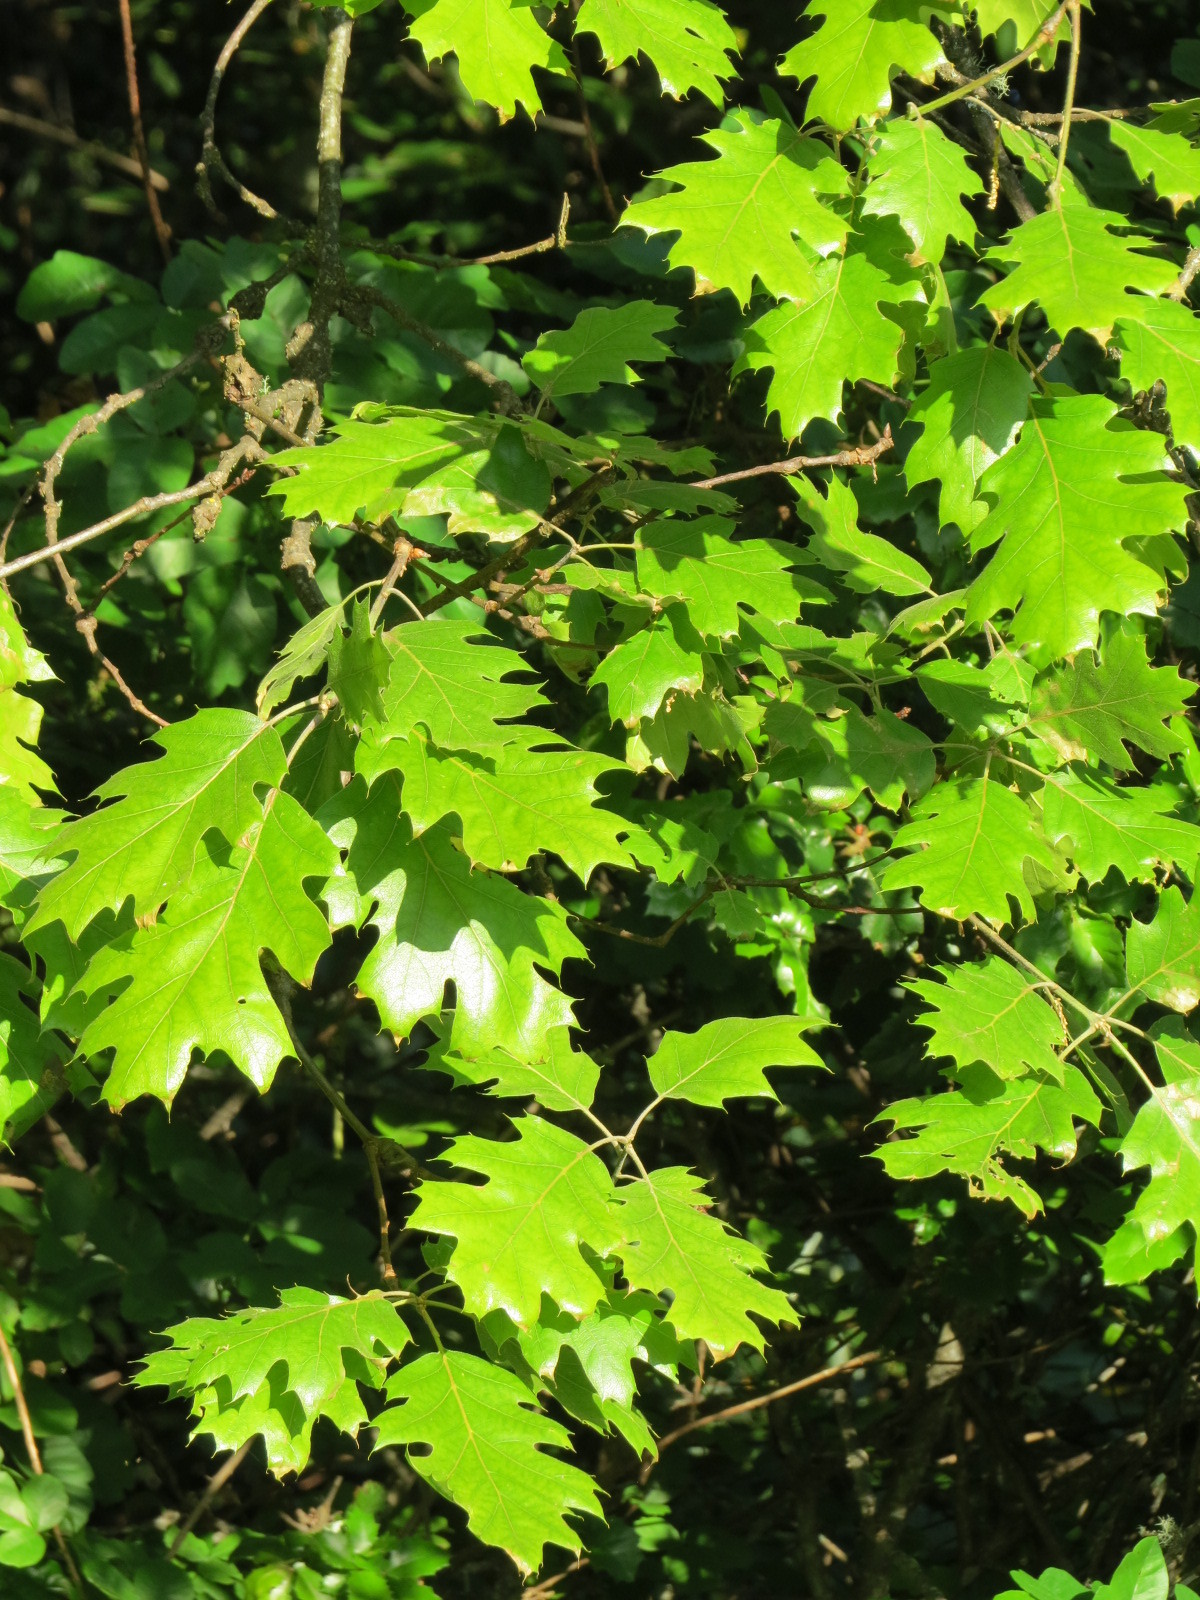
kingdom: Plantae
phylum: Tracheophyta
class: Magnoliopsida
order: Fagales
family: Fagaceae
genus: Quercus
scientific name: Quercus kelloggii
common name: California black oak
